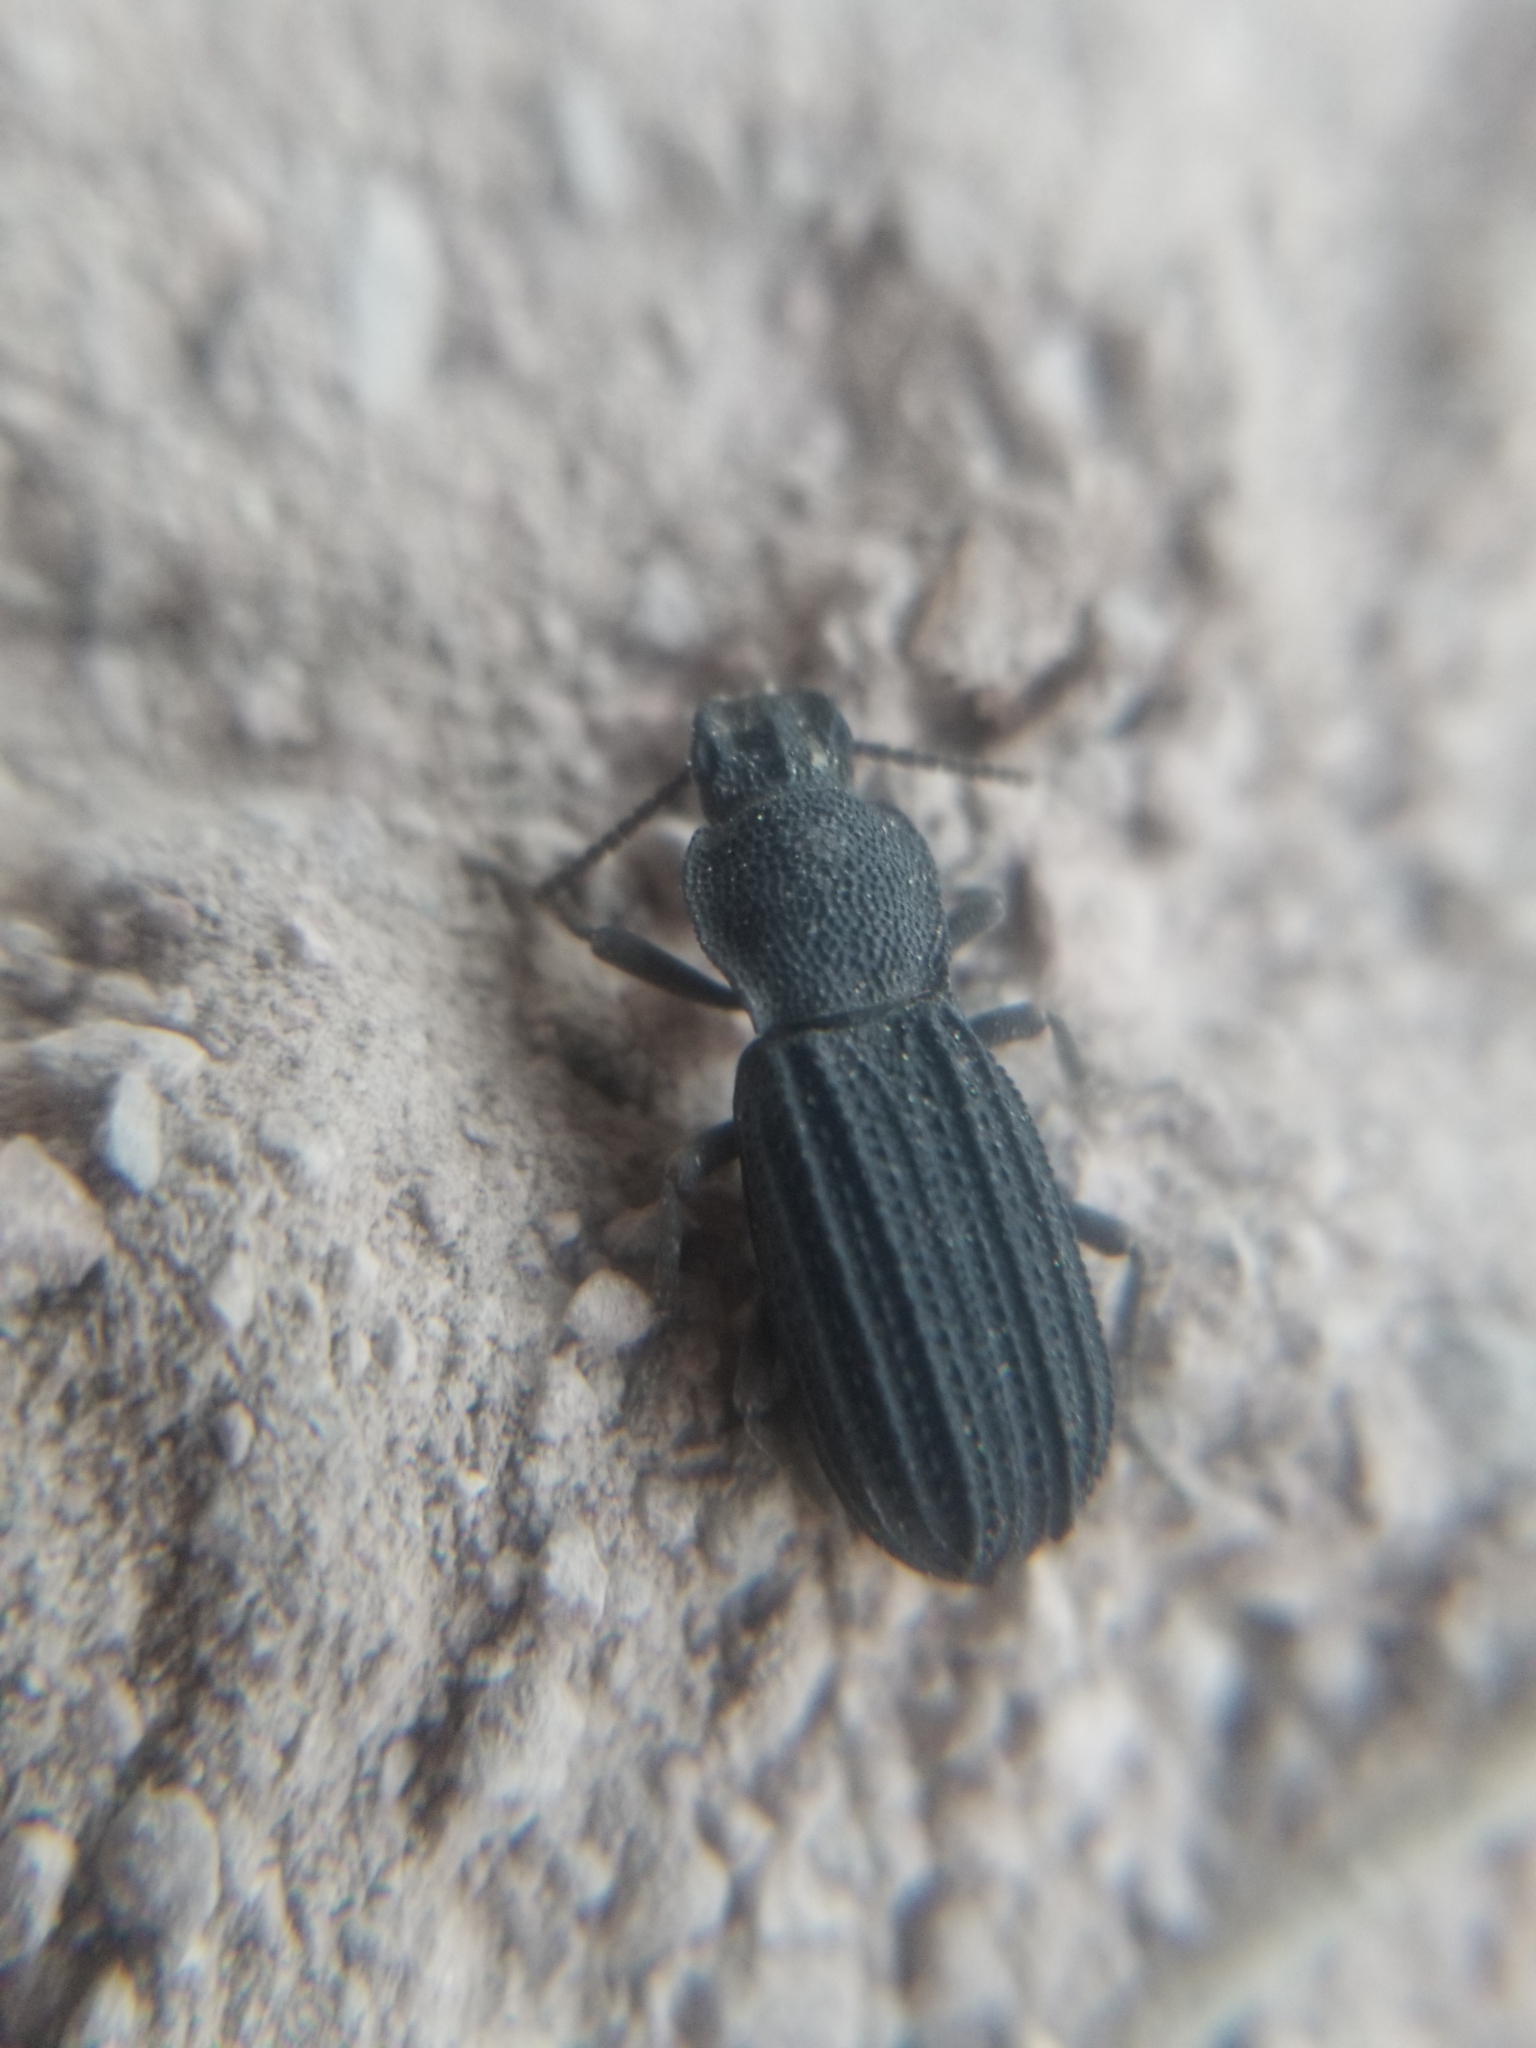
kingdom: Animalia
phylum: Arthropoda
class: Insecta
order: Coleoptera
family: Tenebrionidae
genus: Nyctoporis
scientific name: Nyctoporis carinata
